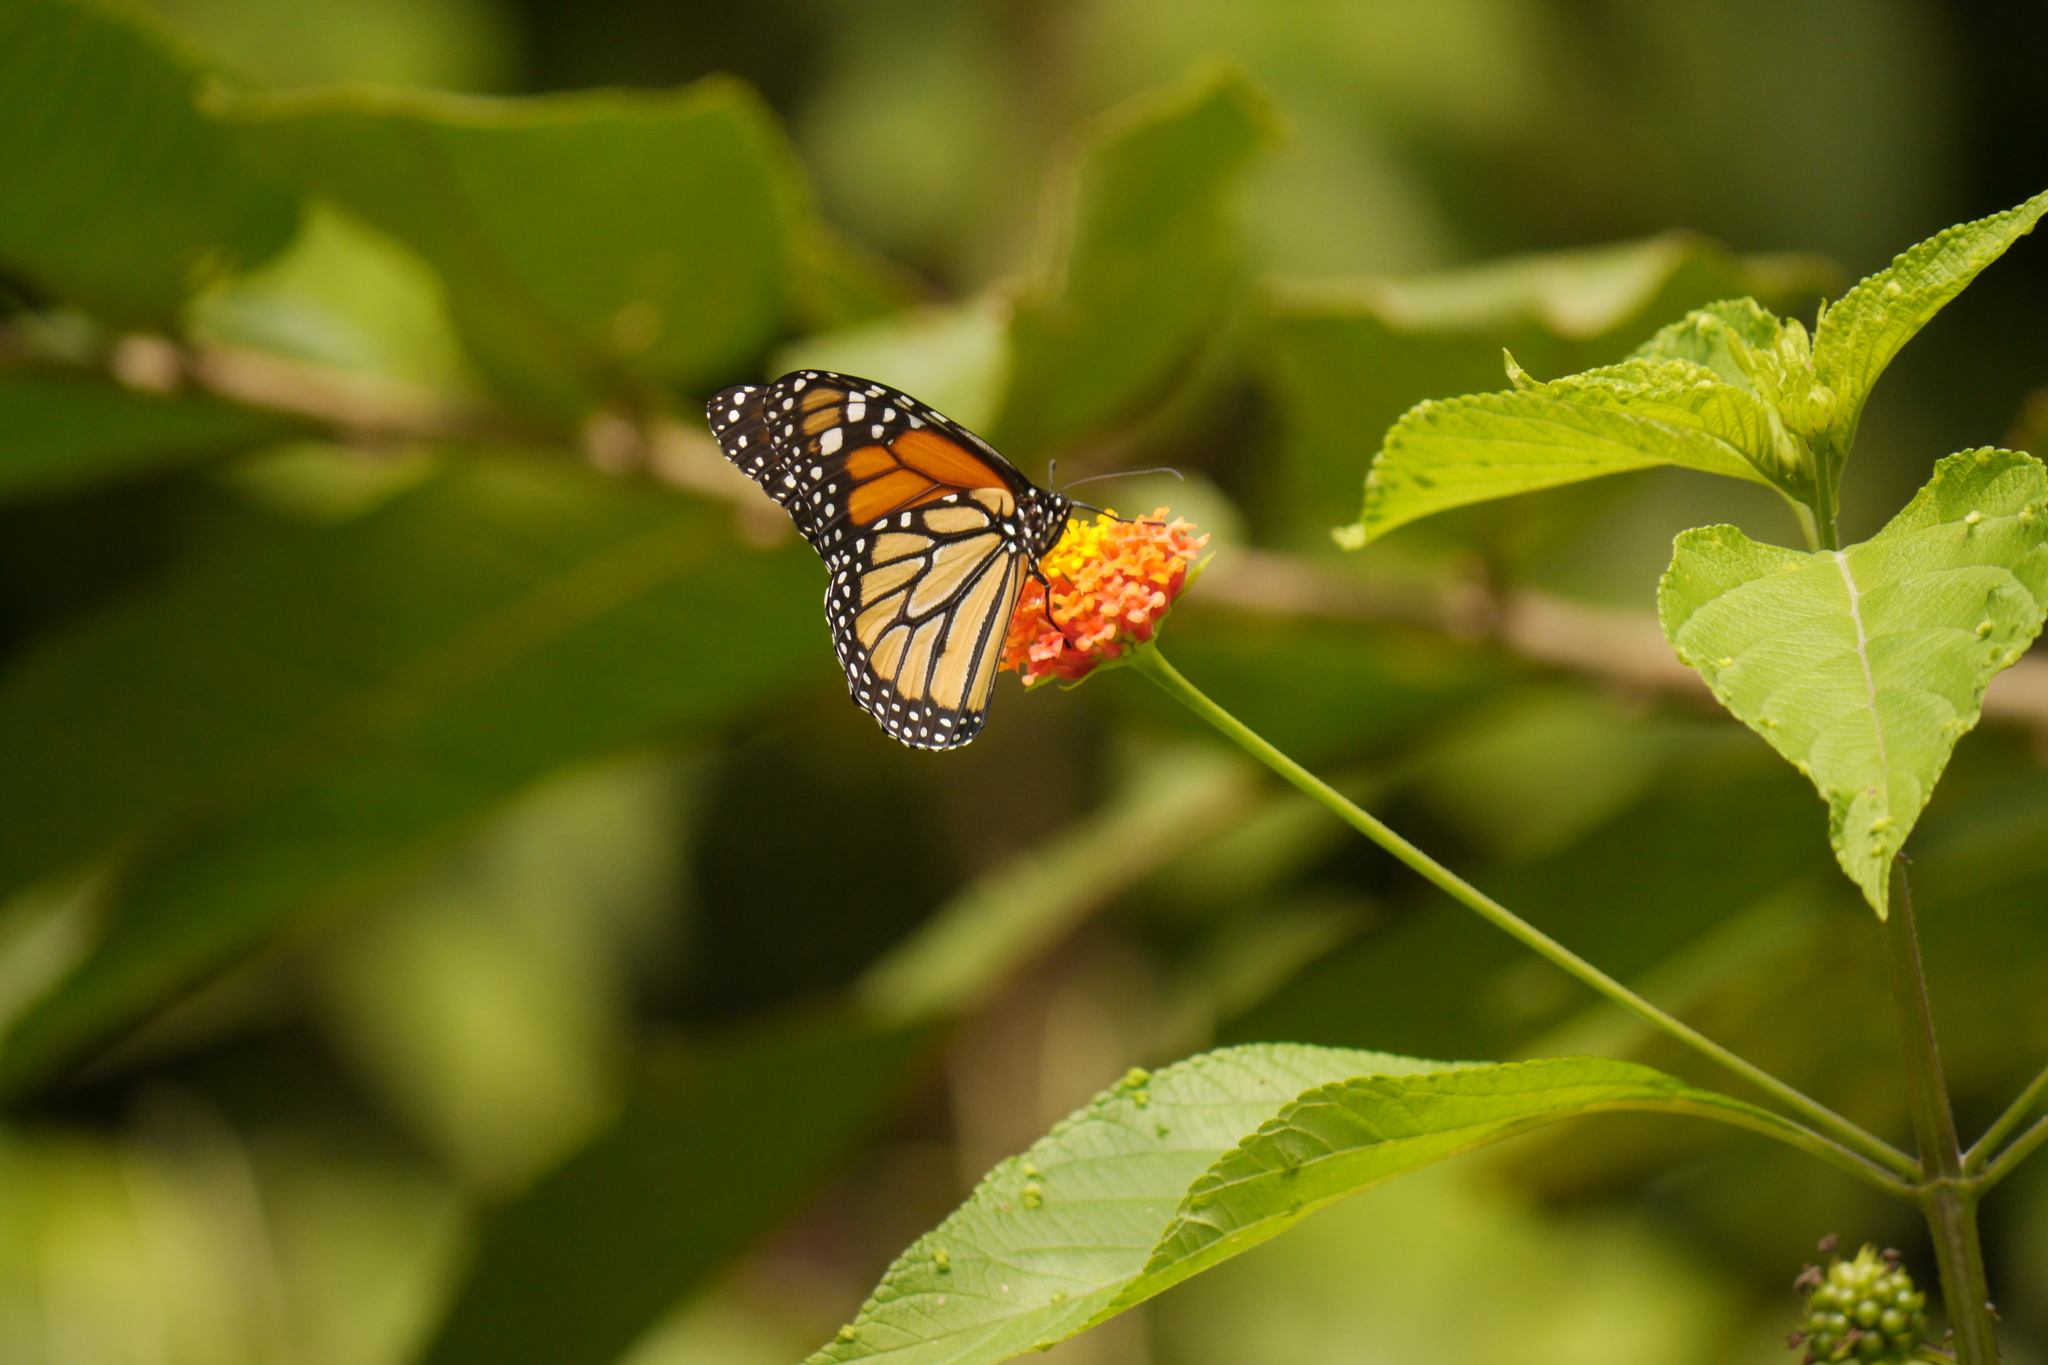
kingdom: Animalia
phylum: Arthropoda
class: Insecta
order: Lepidoptera
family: Nymphalidae
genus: Danaus
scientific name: Danaus plexippus
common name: Monarch
